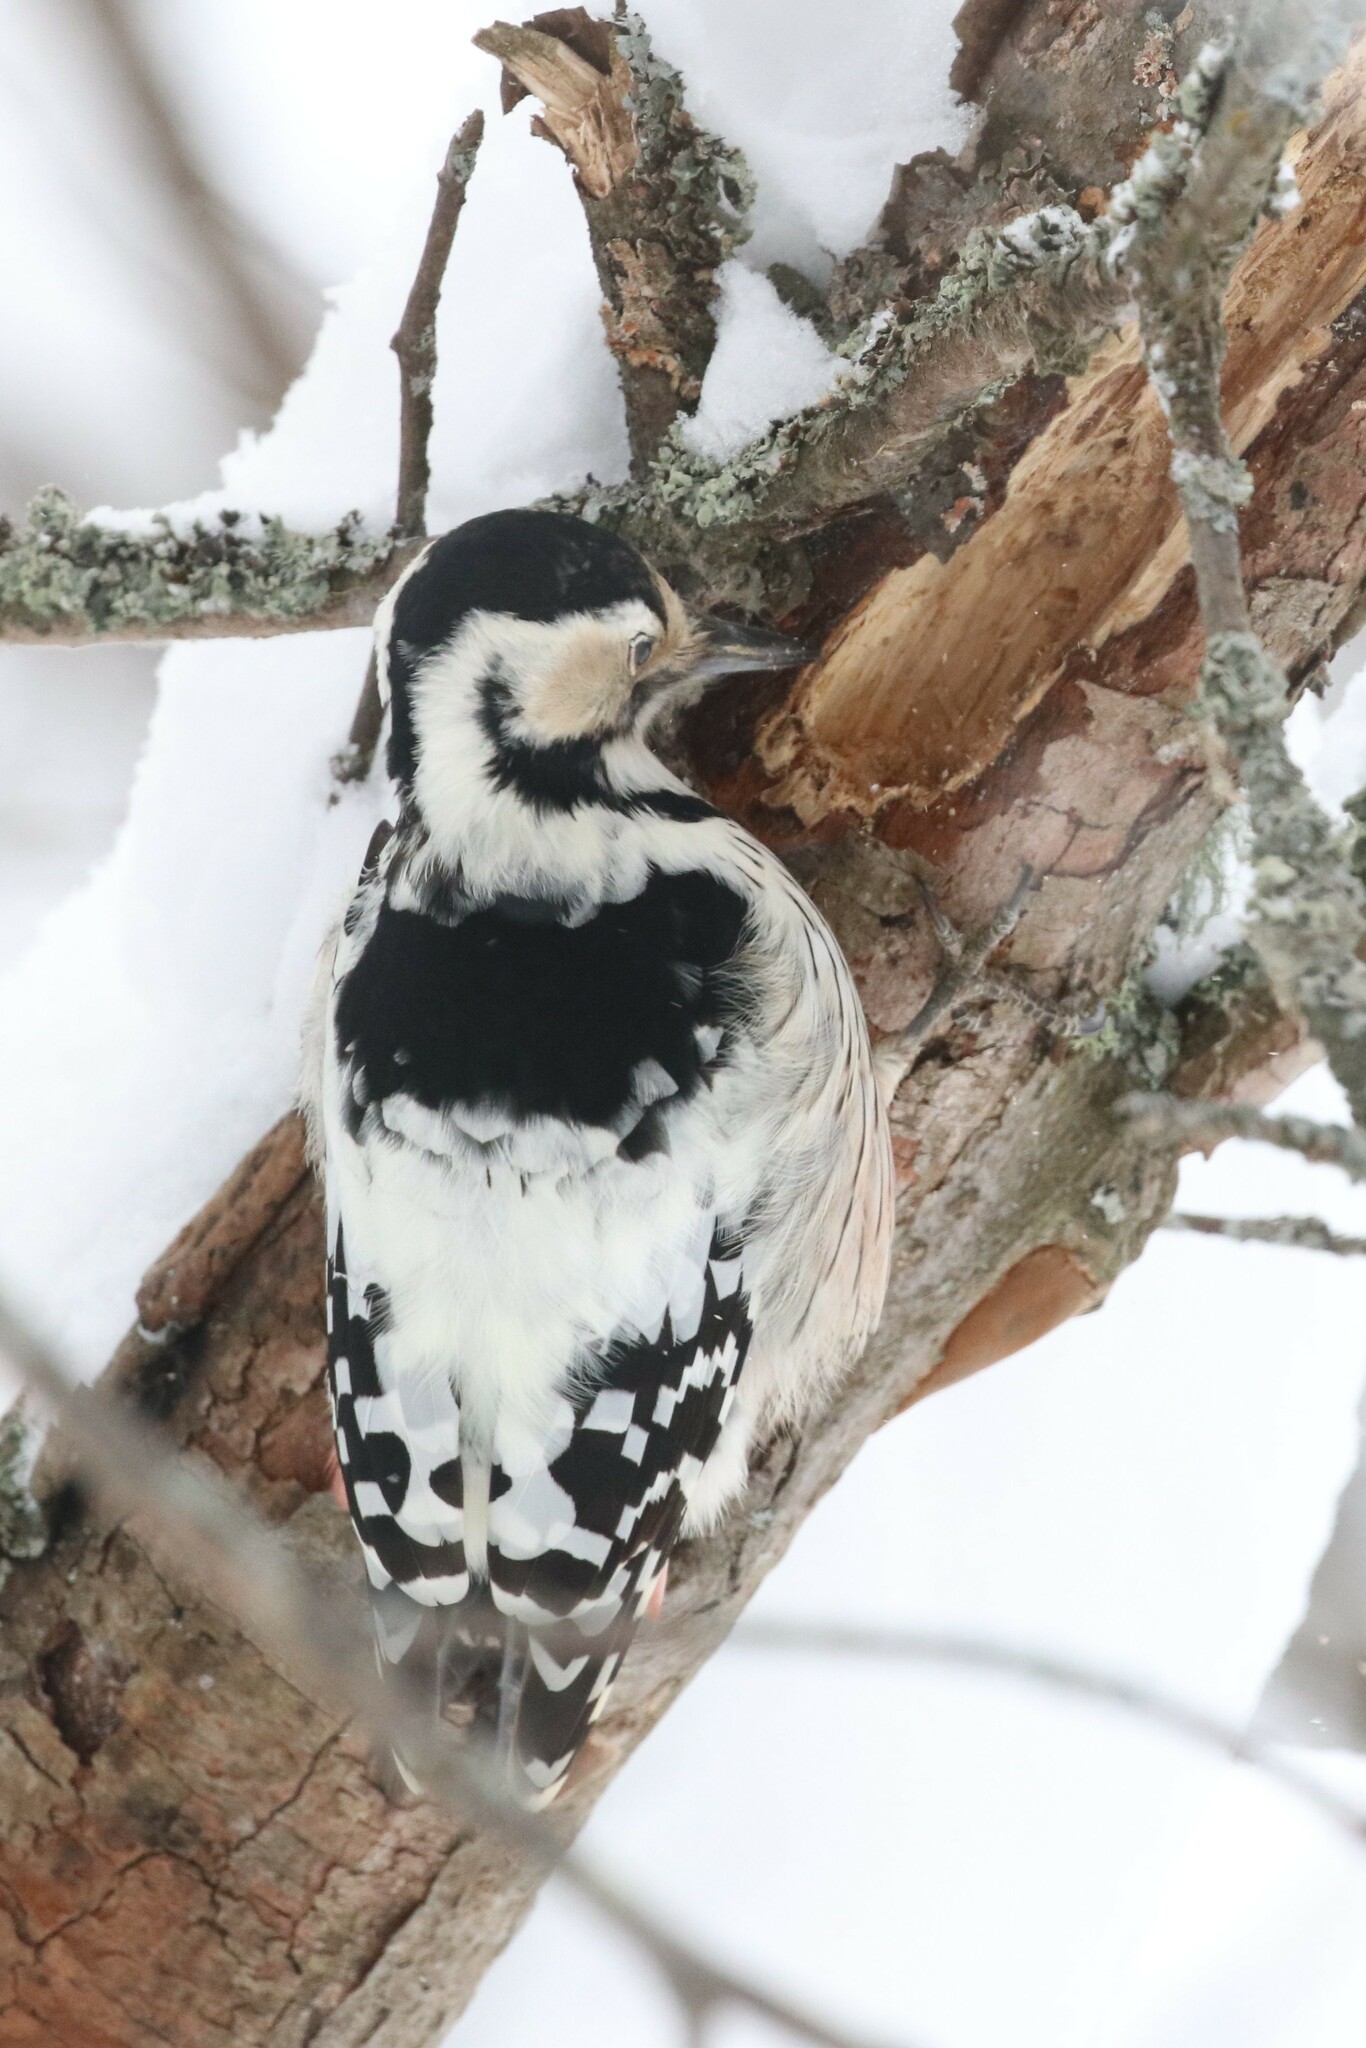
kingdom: Animalia
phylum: Chordata
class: Aves
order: Piciformes
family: Picidae
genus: Dendrocopos
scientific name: Dendrocopos leucotos
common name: White-backed woodpecker
